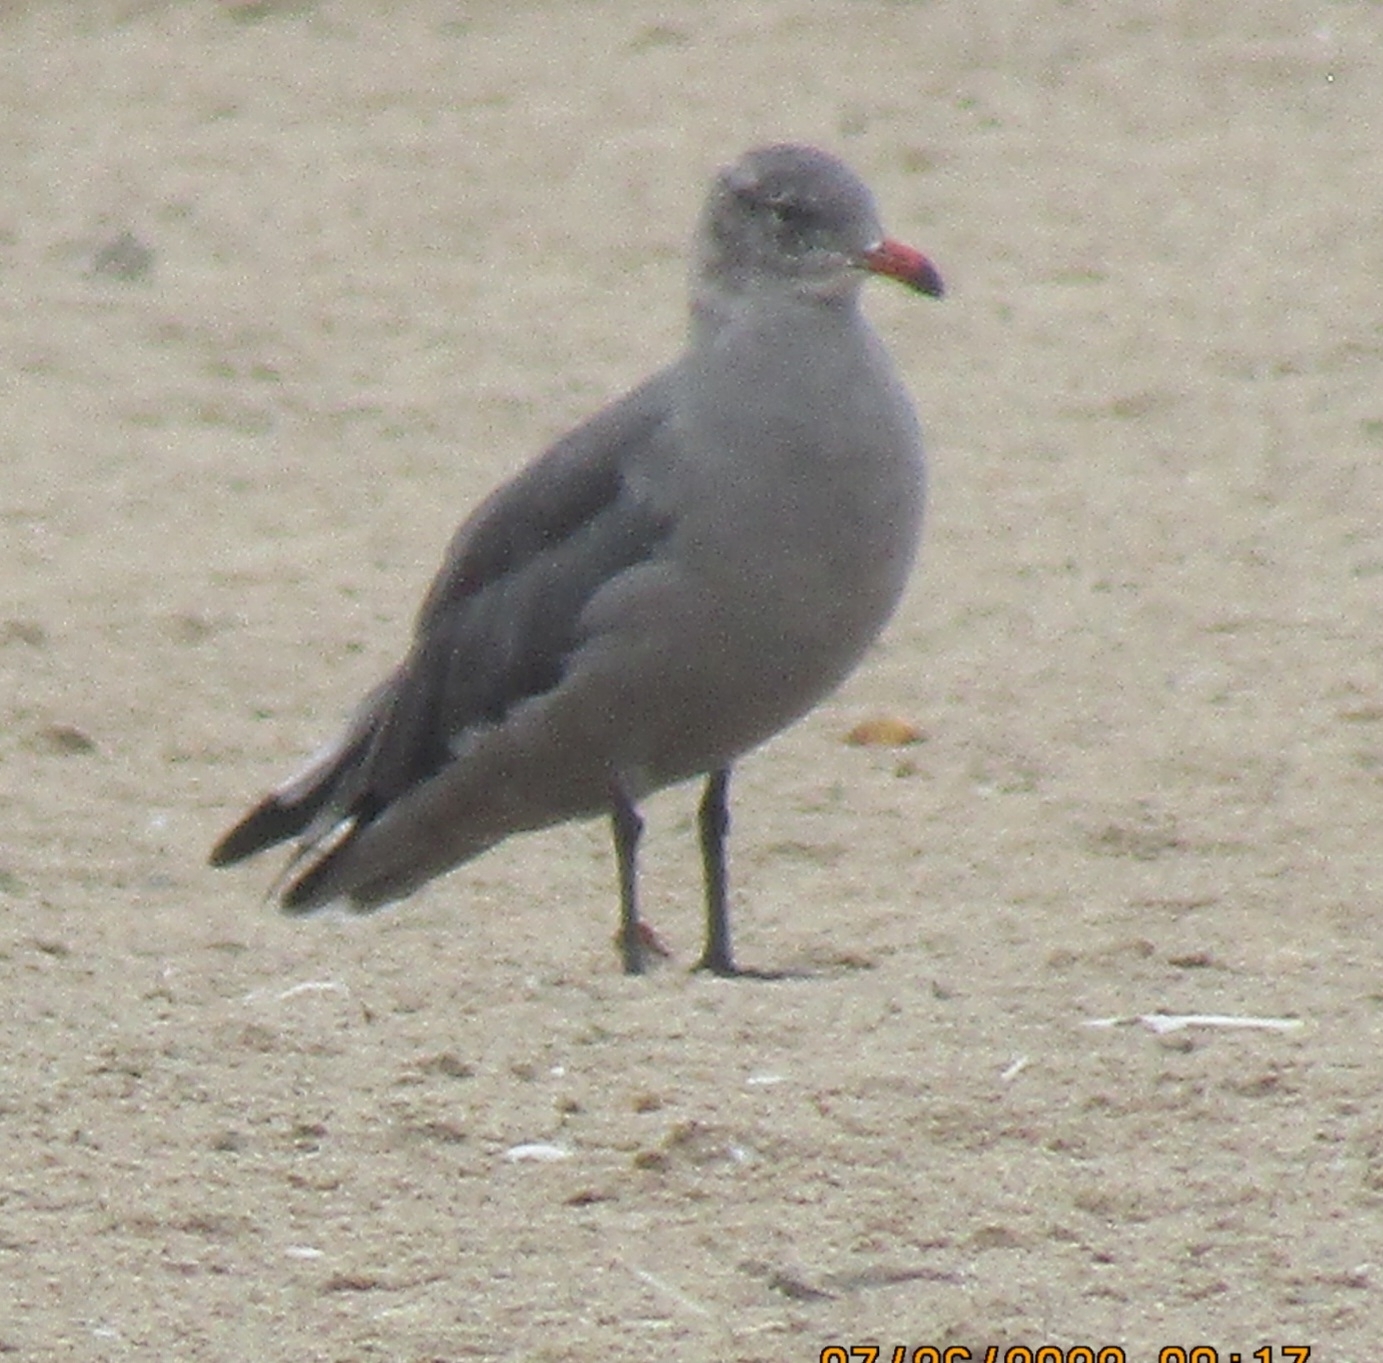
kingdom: Animalia
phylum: Chordata
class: Aves
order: Charadriiformes
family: Laridae
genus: Larus
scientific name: Larus heermanni
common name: Heermann's gull
